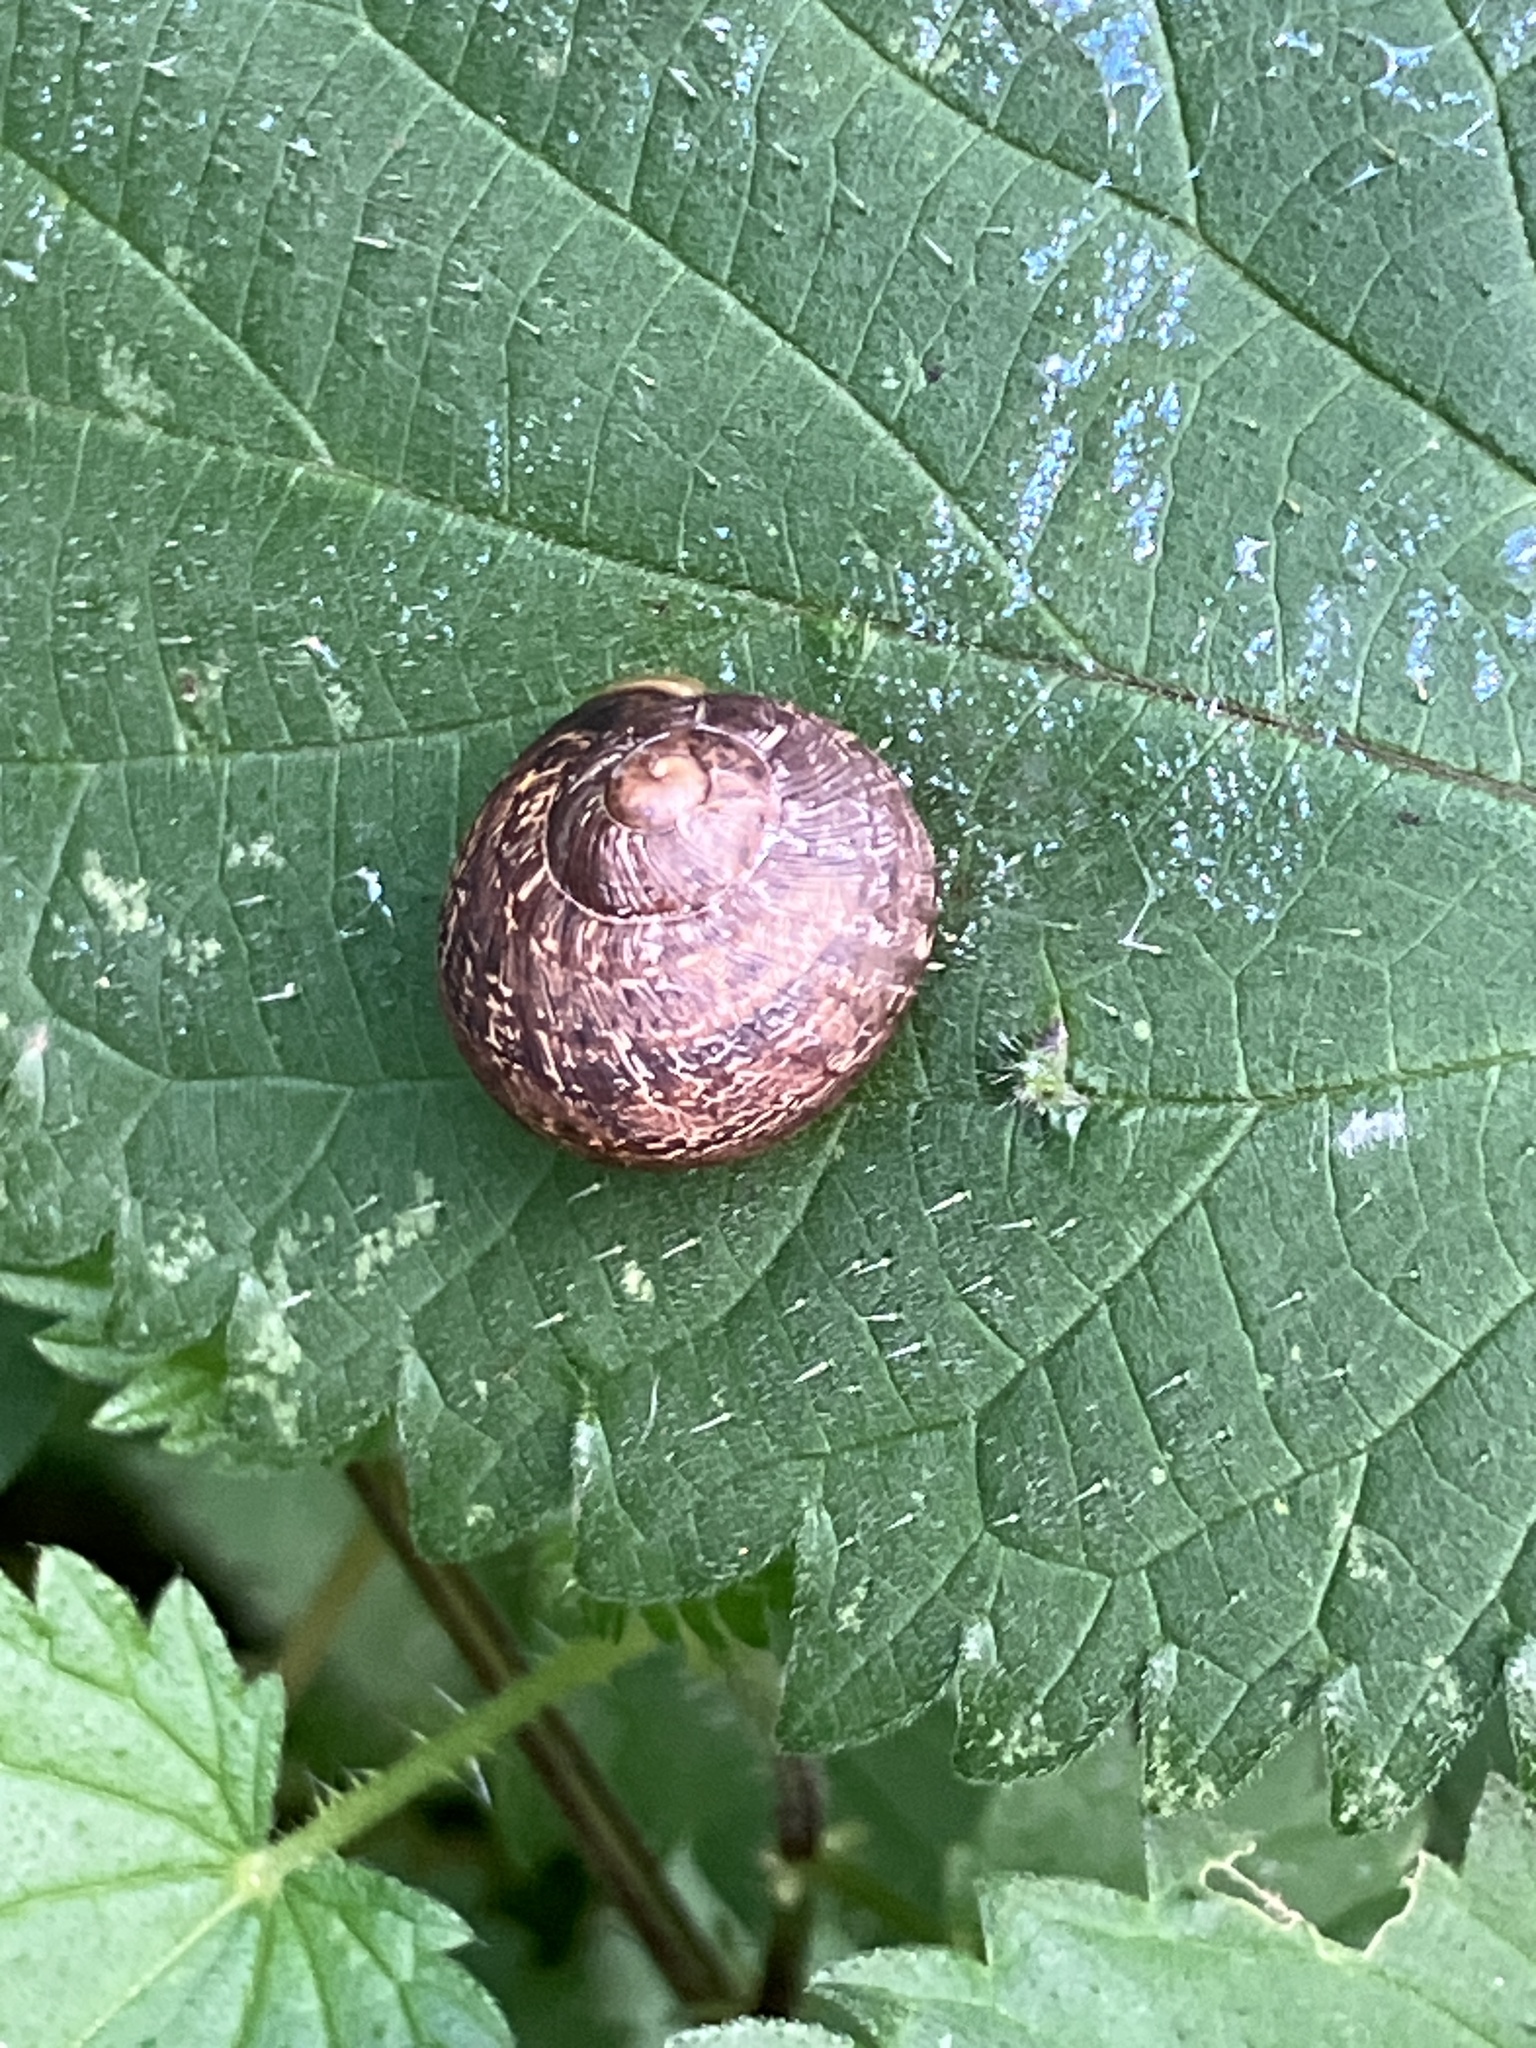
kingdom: Animalia
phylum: Mollusca
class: Gastropoda
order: Stylommatophora
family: Helicidae
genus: Cornu
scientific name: Cornu aspersum
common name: Brown garden snail
